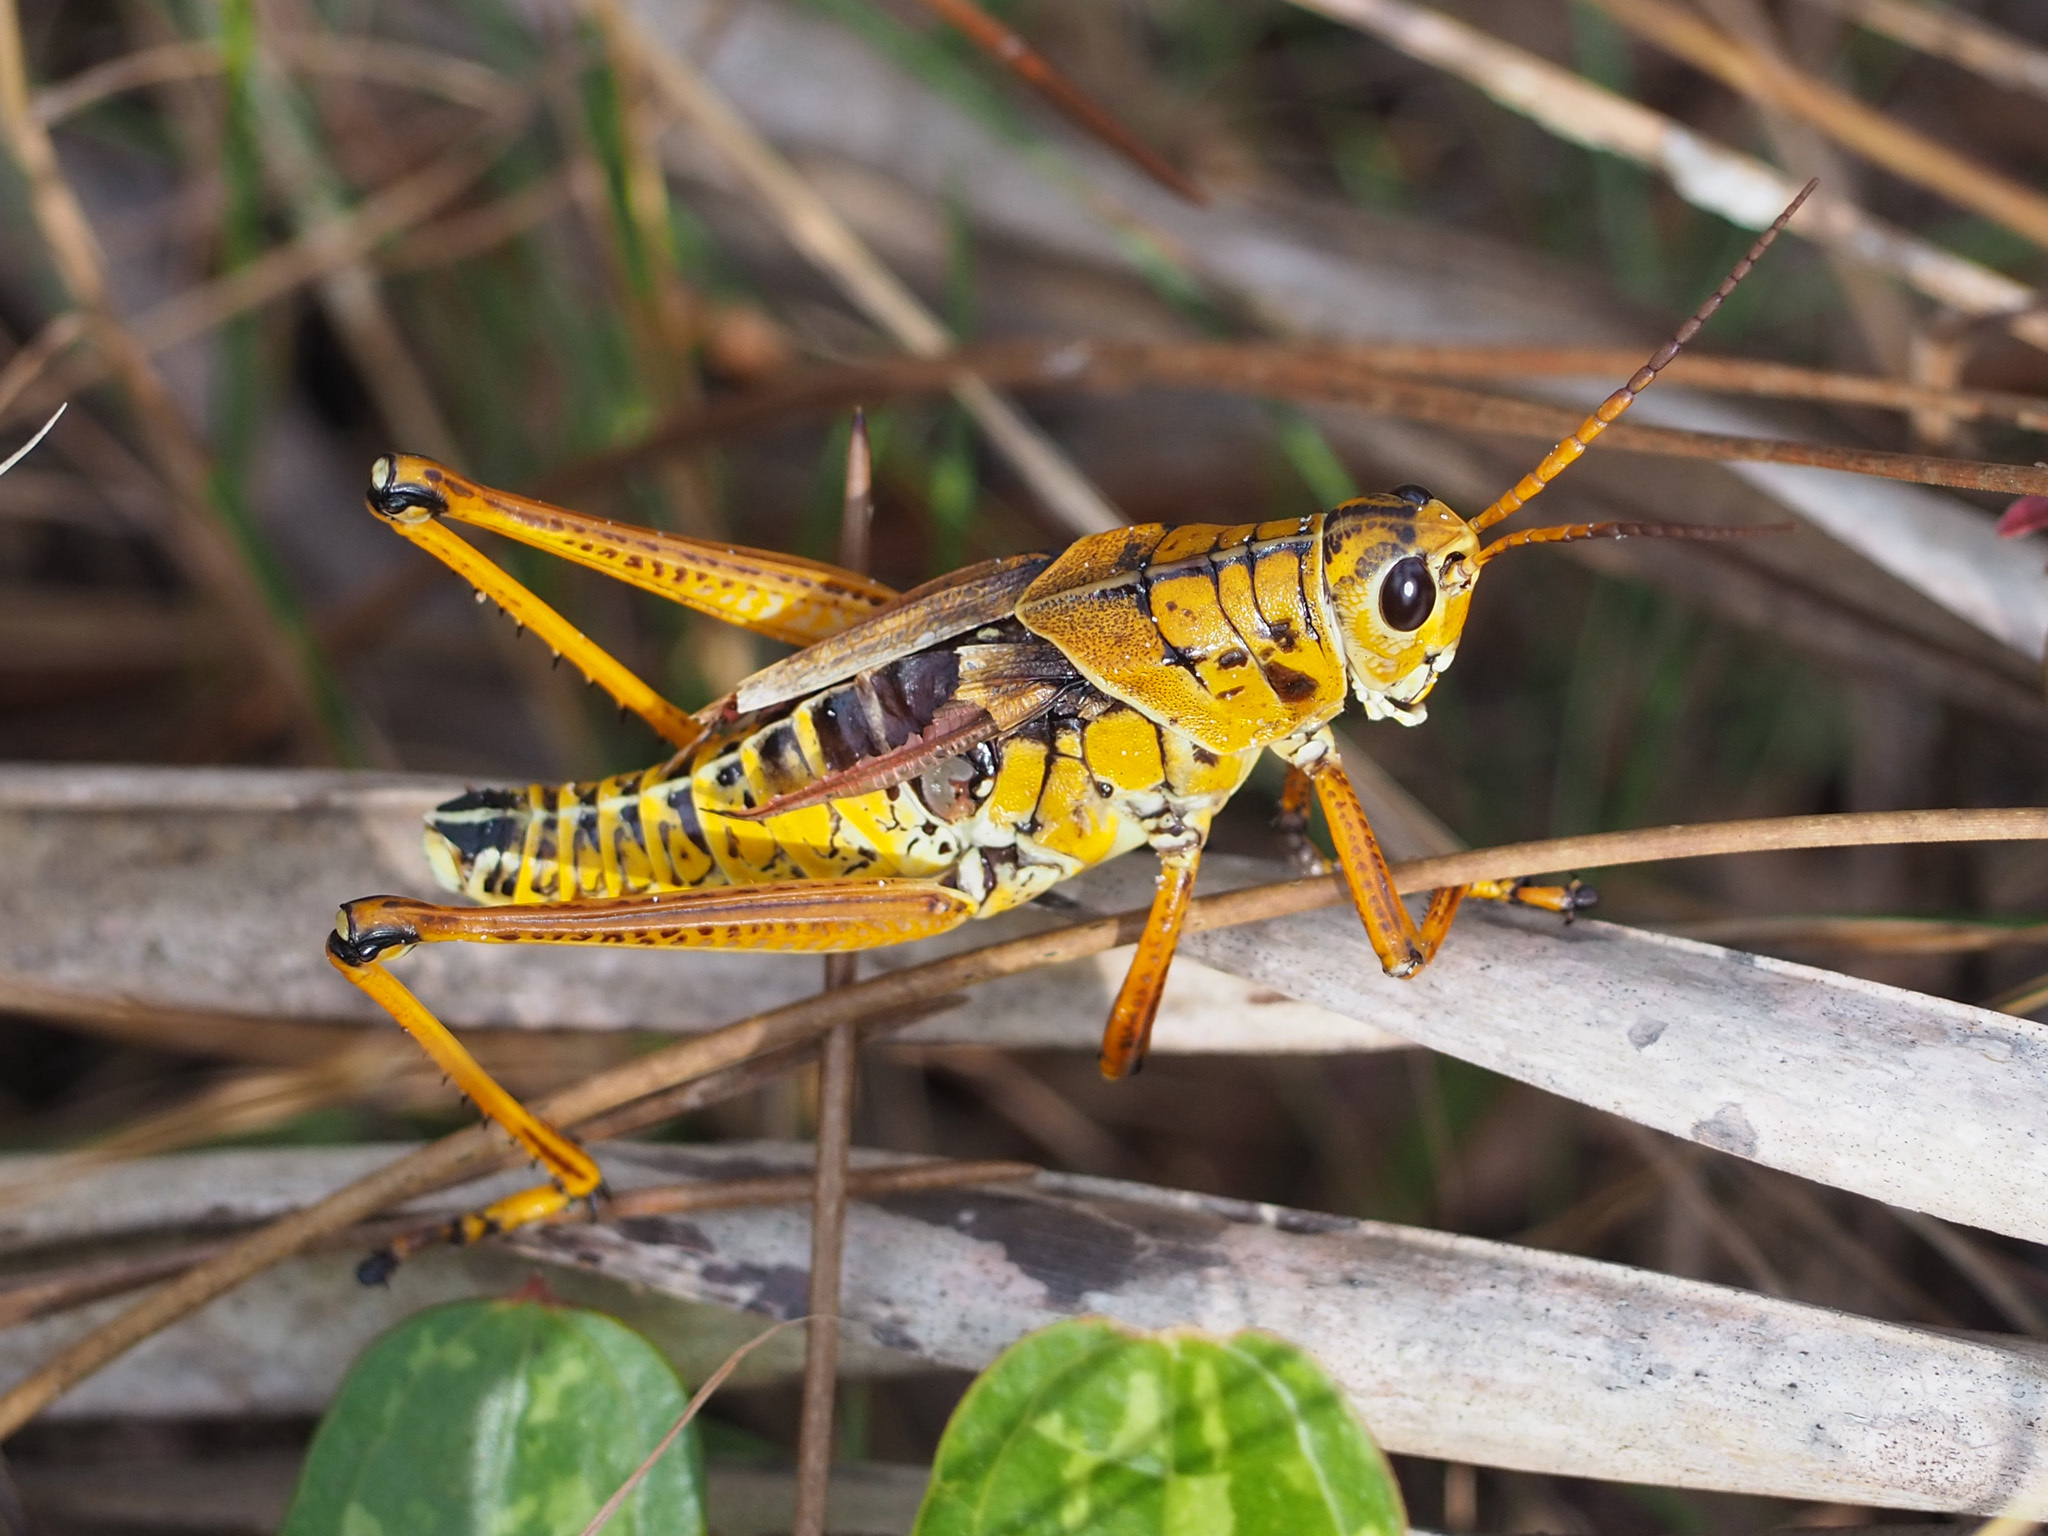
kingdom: Animalia
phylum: Arthropoda
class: Insecta
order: Orthoptera
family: Romaleidae
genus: Romalea
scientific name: Romalea microptera
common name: Eastern lubber grasshopper
